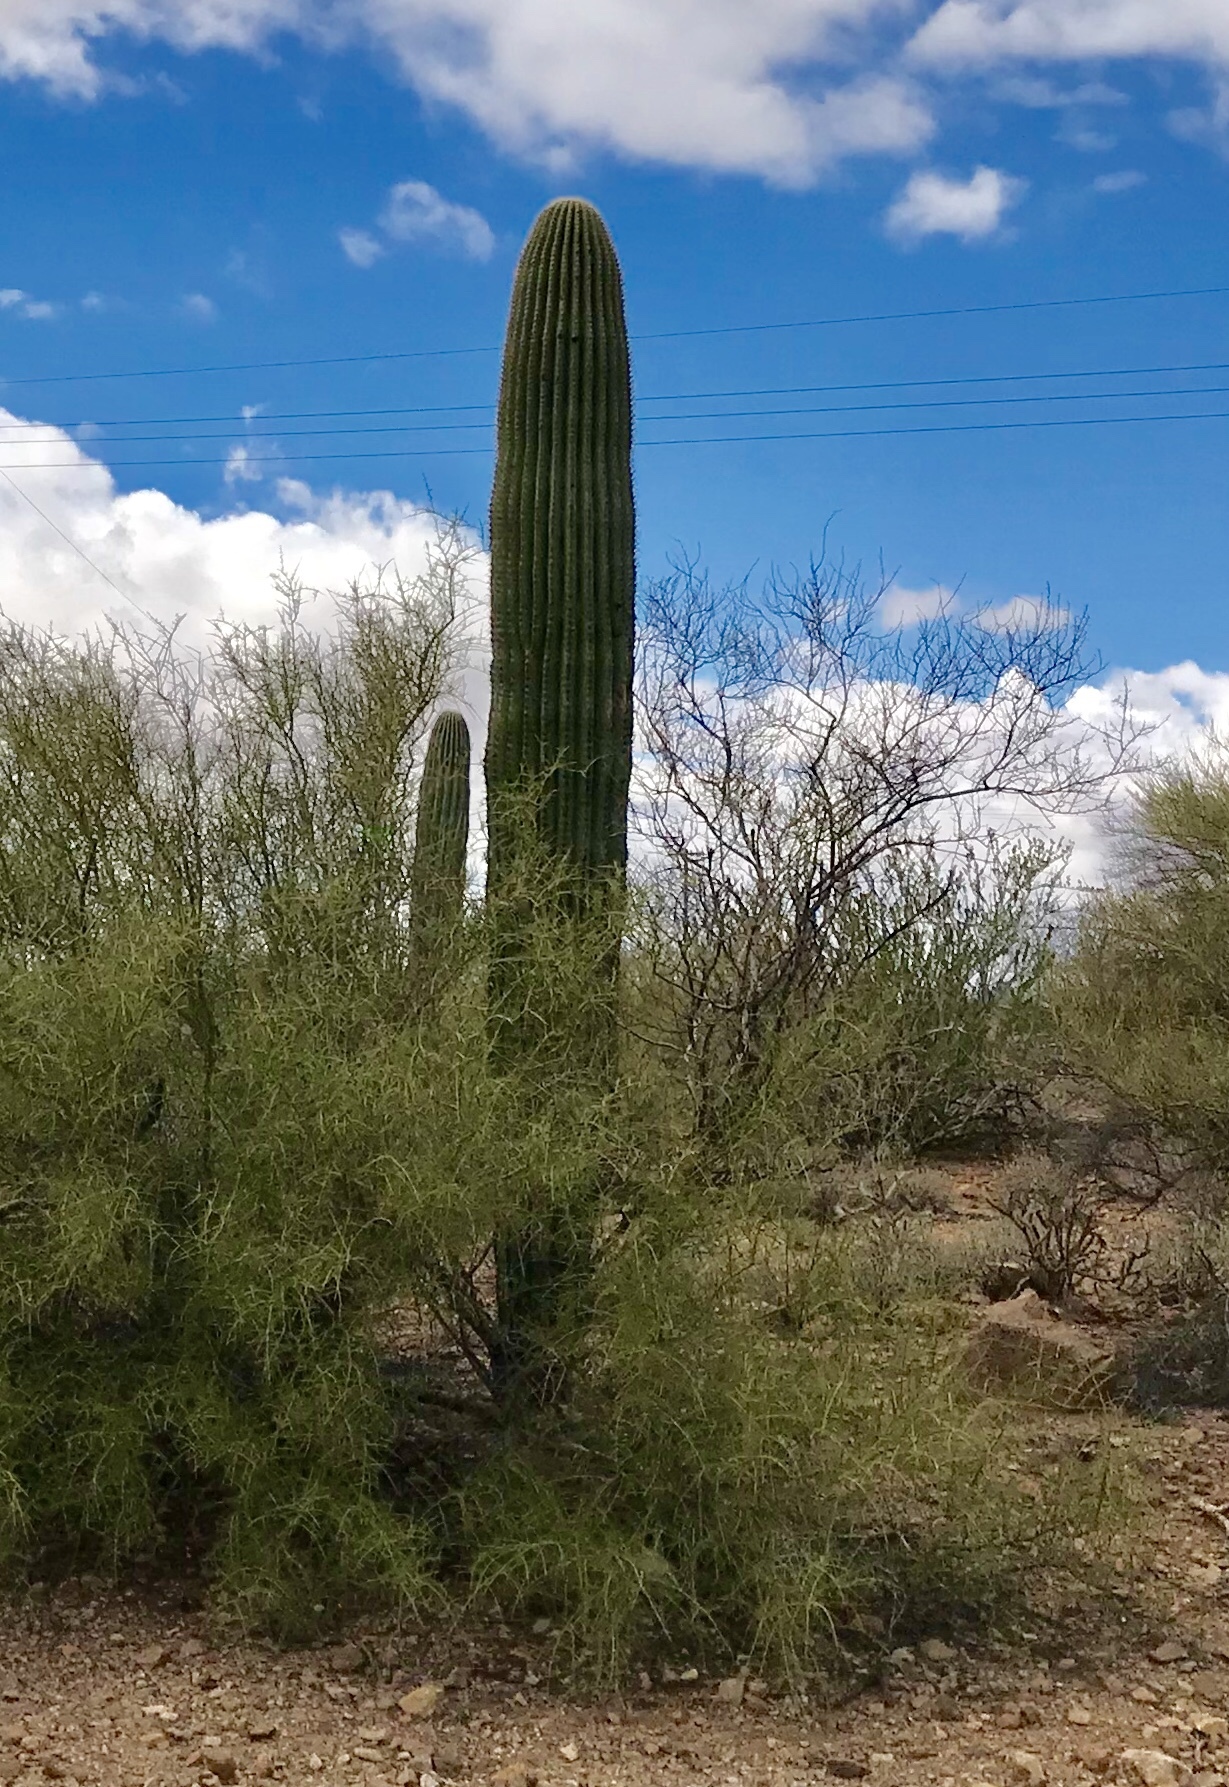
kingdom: Plantae
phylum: Tracheophyta
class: Magnoliopsida
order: Caryophyllales
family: Cactaceae
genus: Carnegiea
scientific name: Carnegiea gigantea
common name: Saguaro
